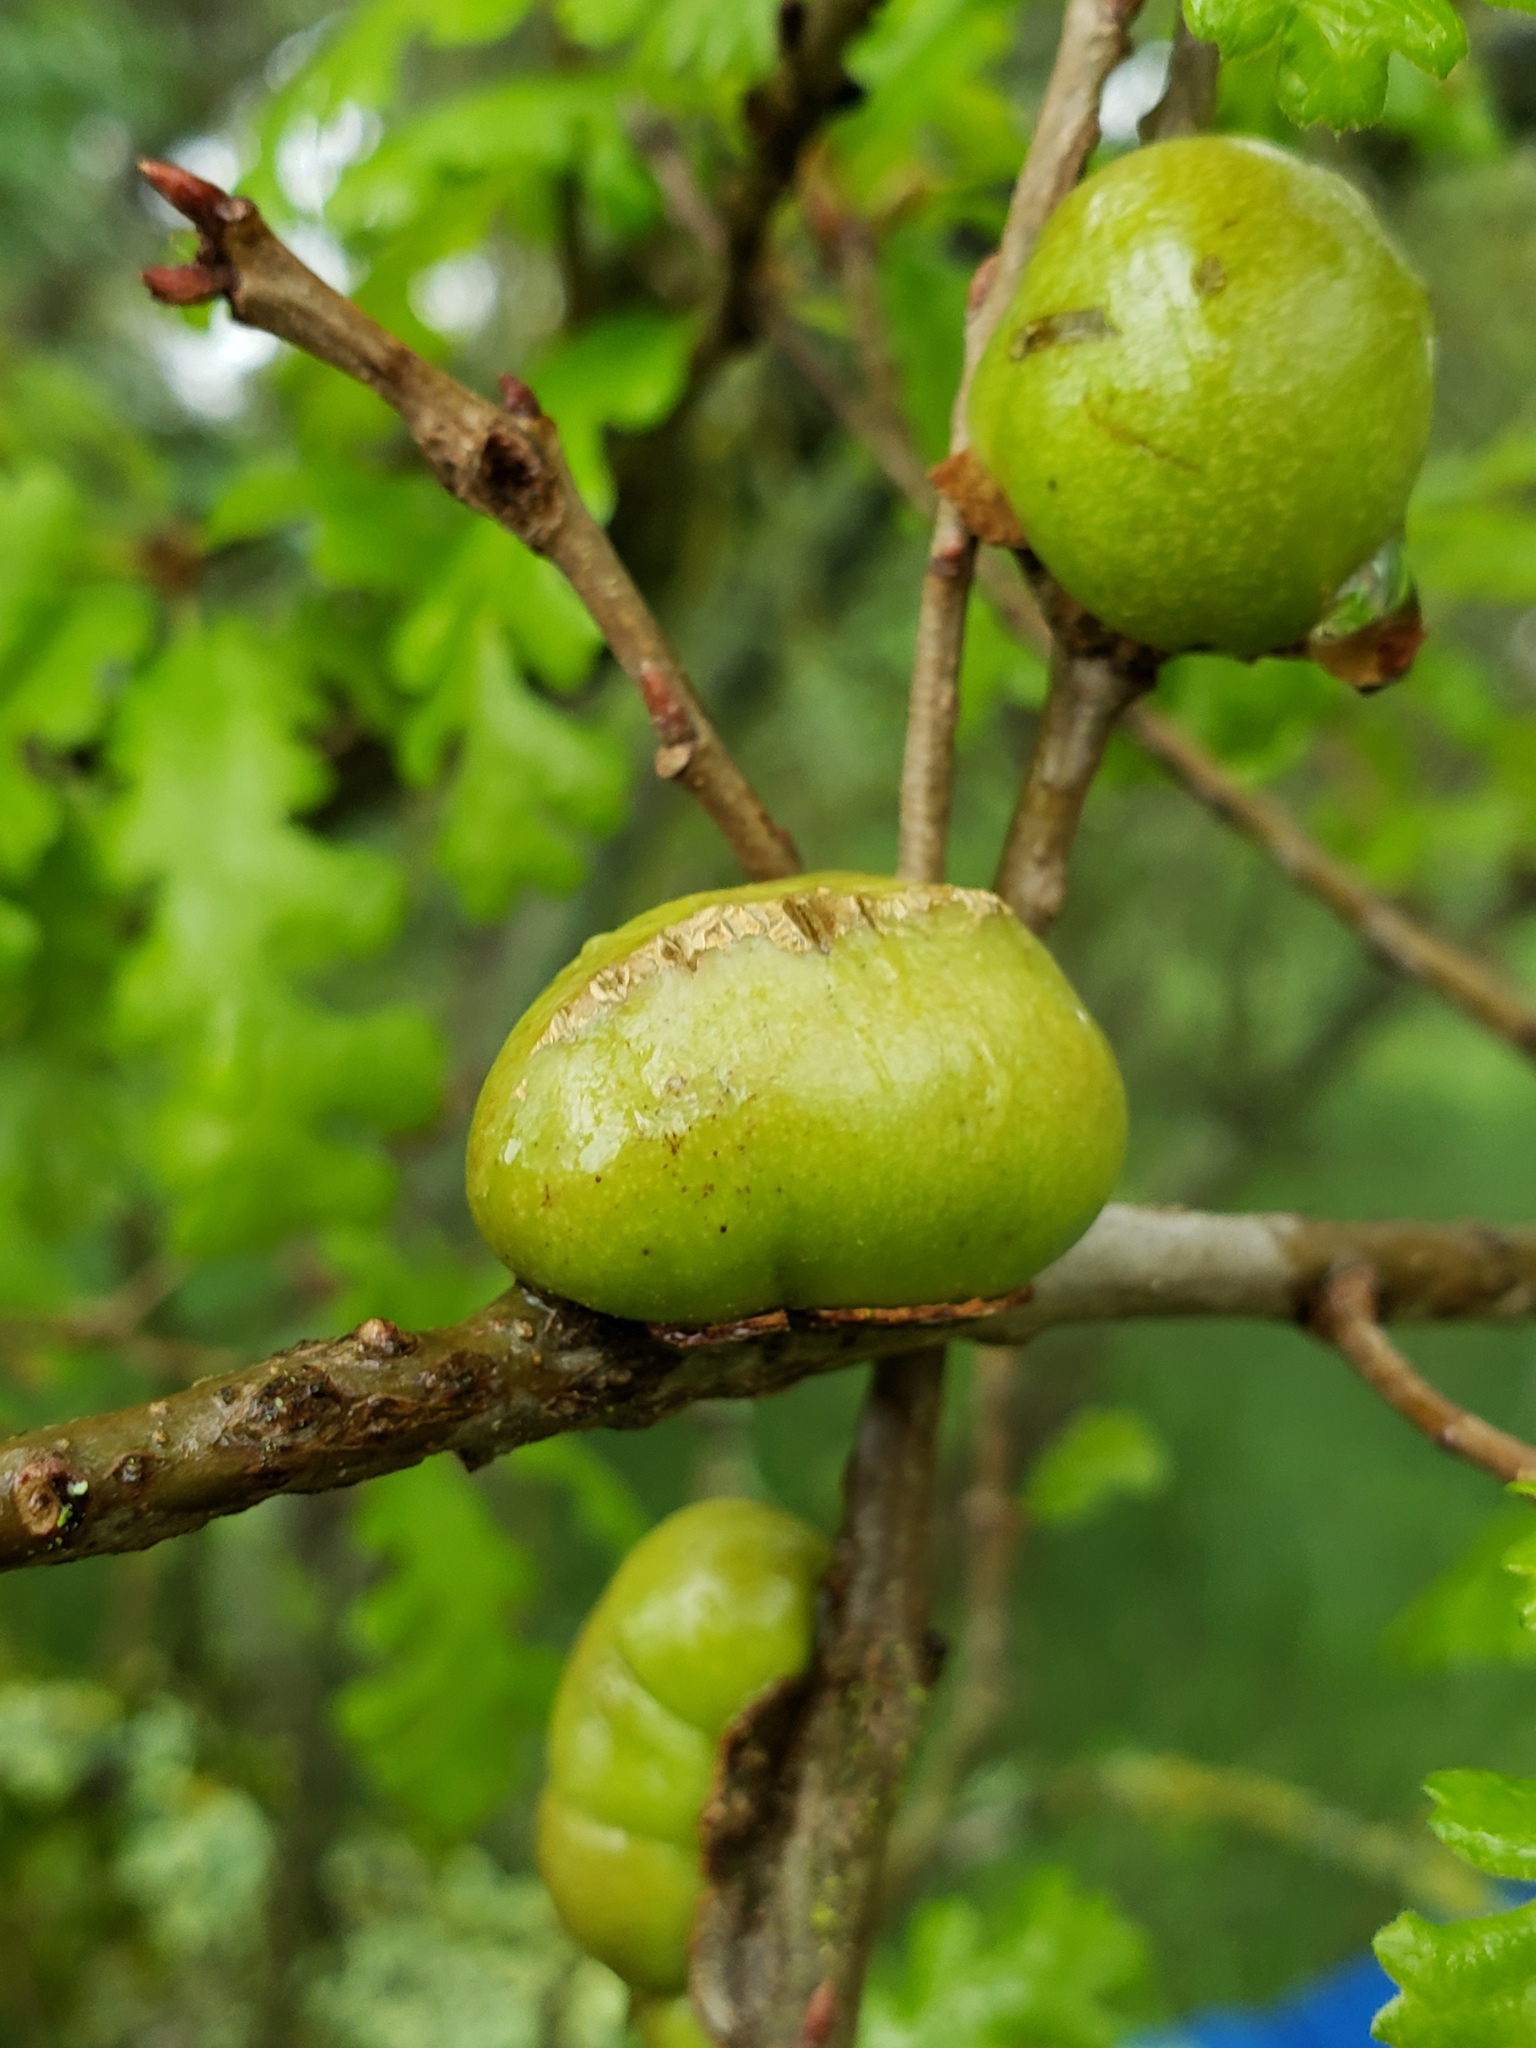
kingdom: Animalia
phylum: Arthropoda
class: Insecta
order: Hymenoptera
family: Cynipidae
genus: Andricus
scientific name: Andricus quercuscalifornicus
